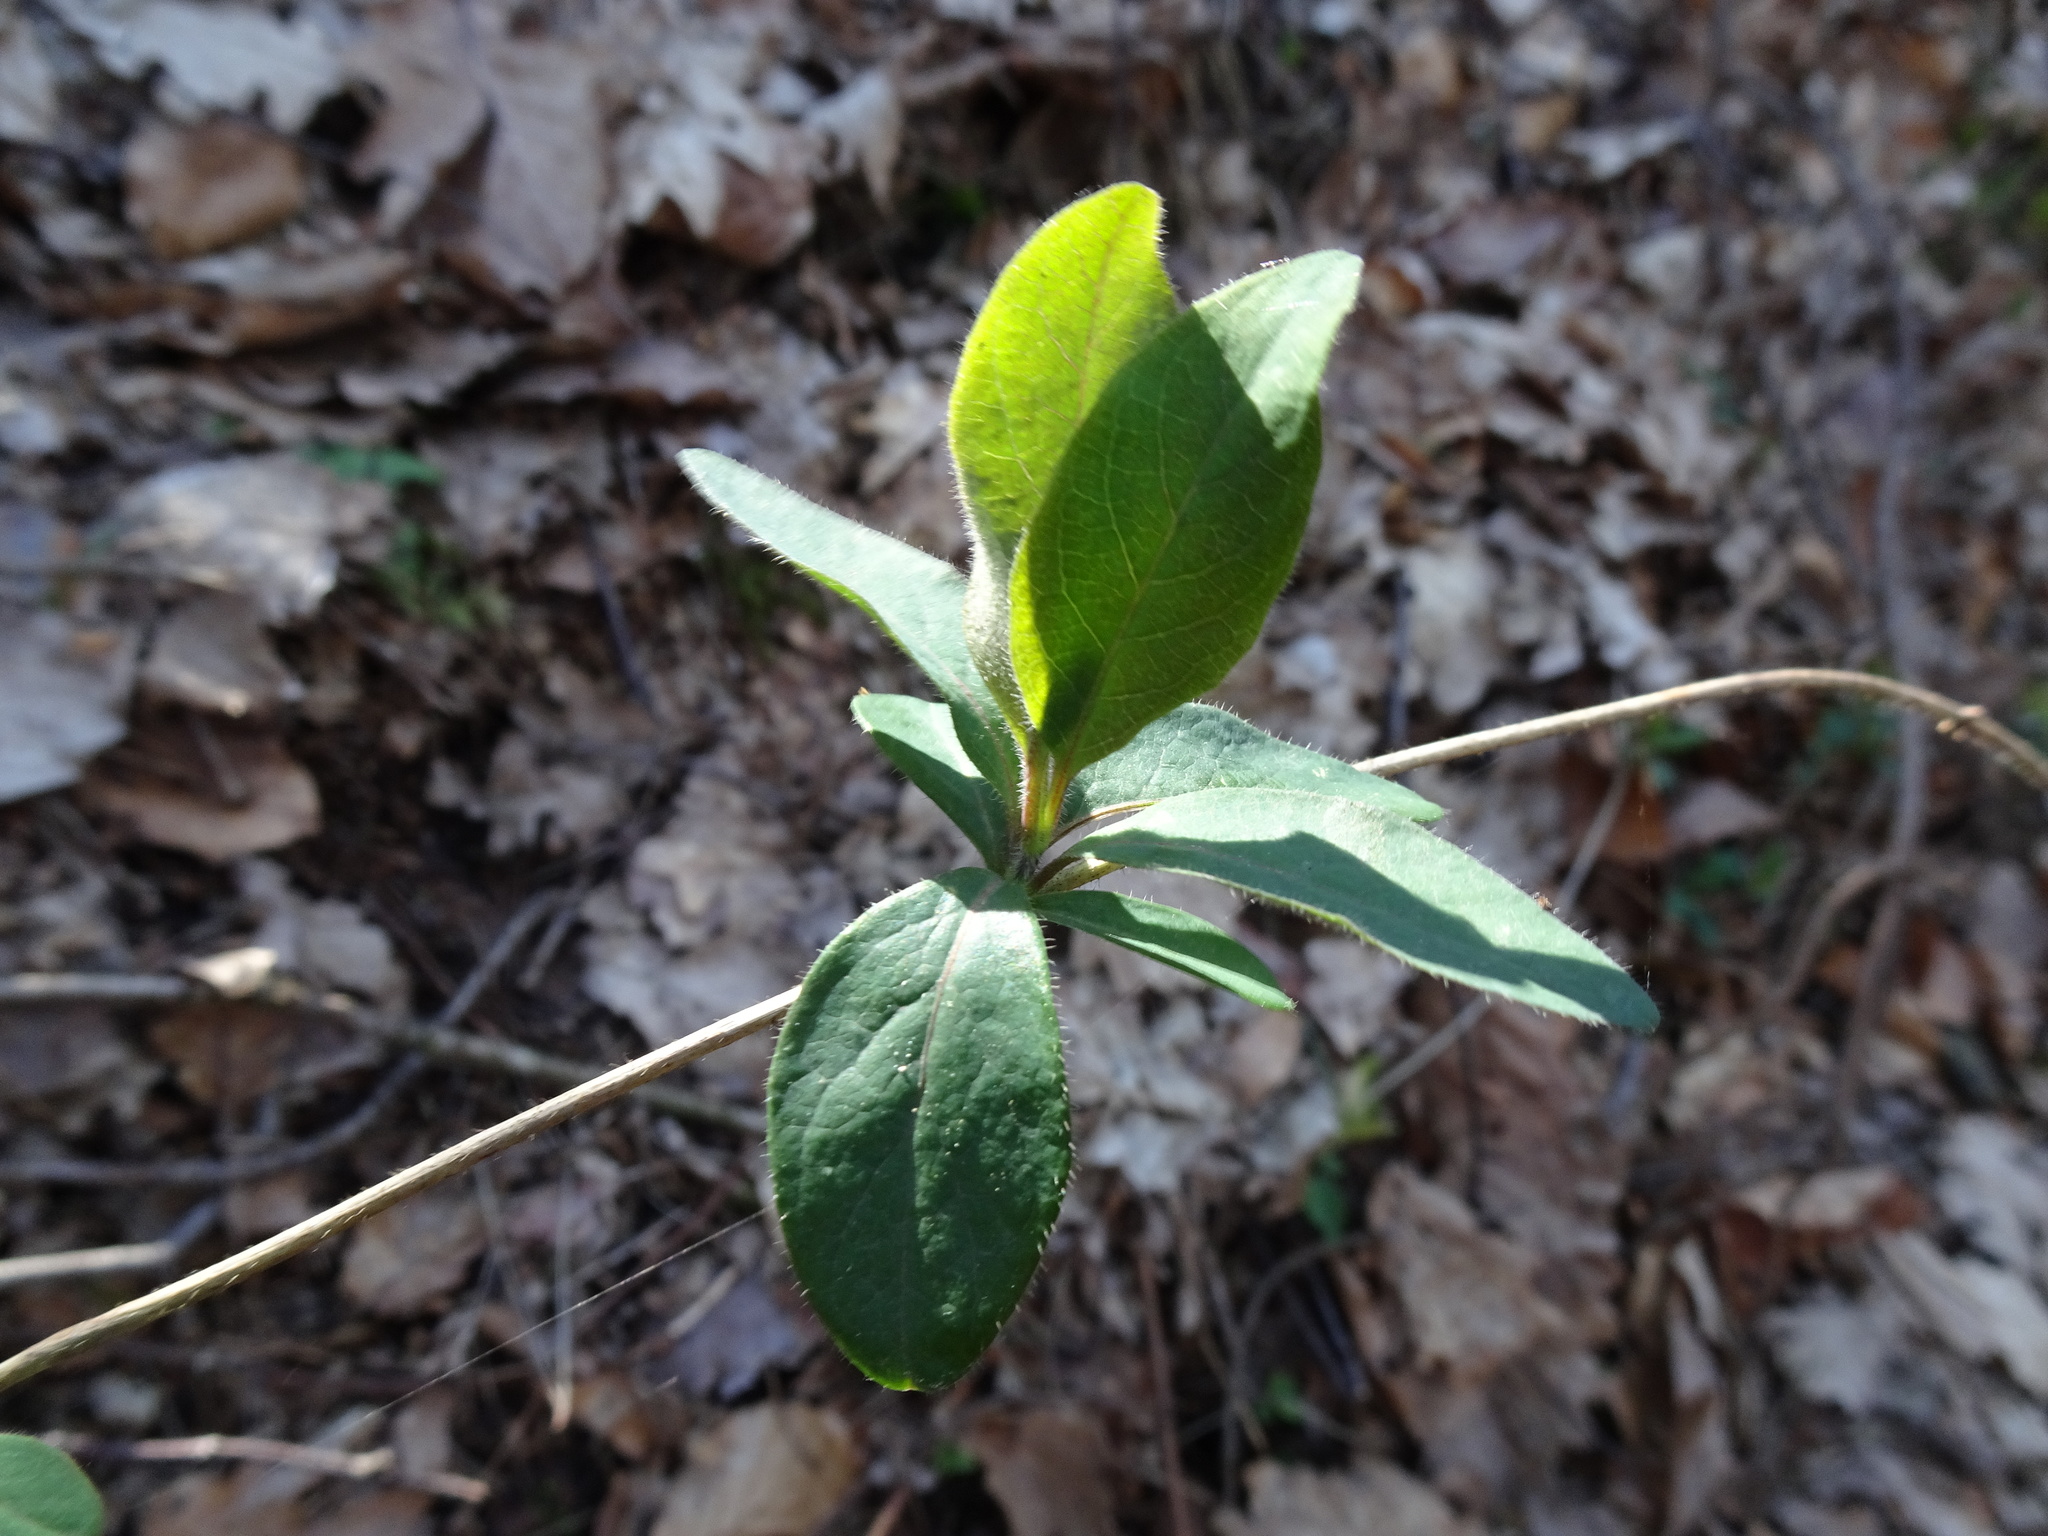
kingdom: Plantae
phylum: Tracheophyta
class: Magnoliopsida
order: Dipsacales
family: Caprifoliaceae
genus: Lonicera
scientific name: Lonicera periclymenum
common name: European honeysuckle
